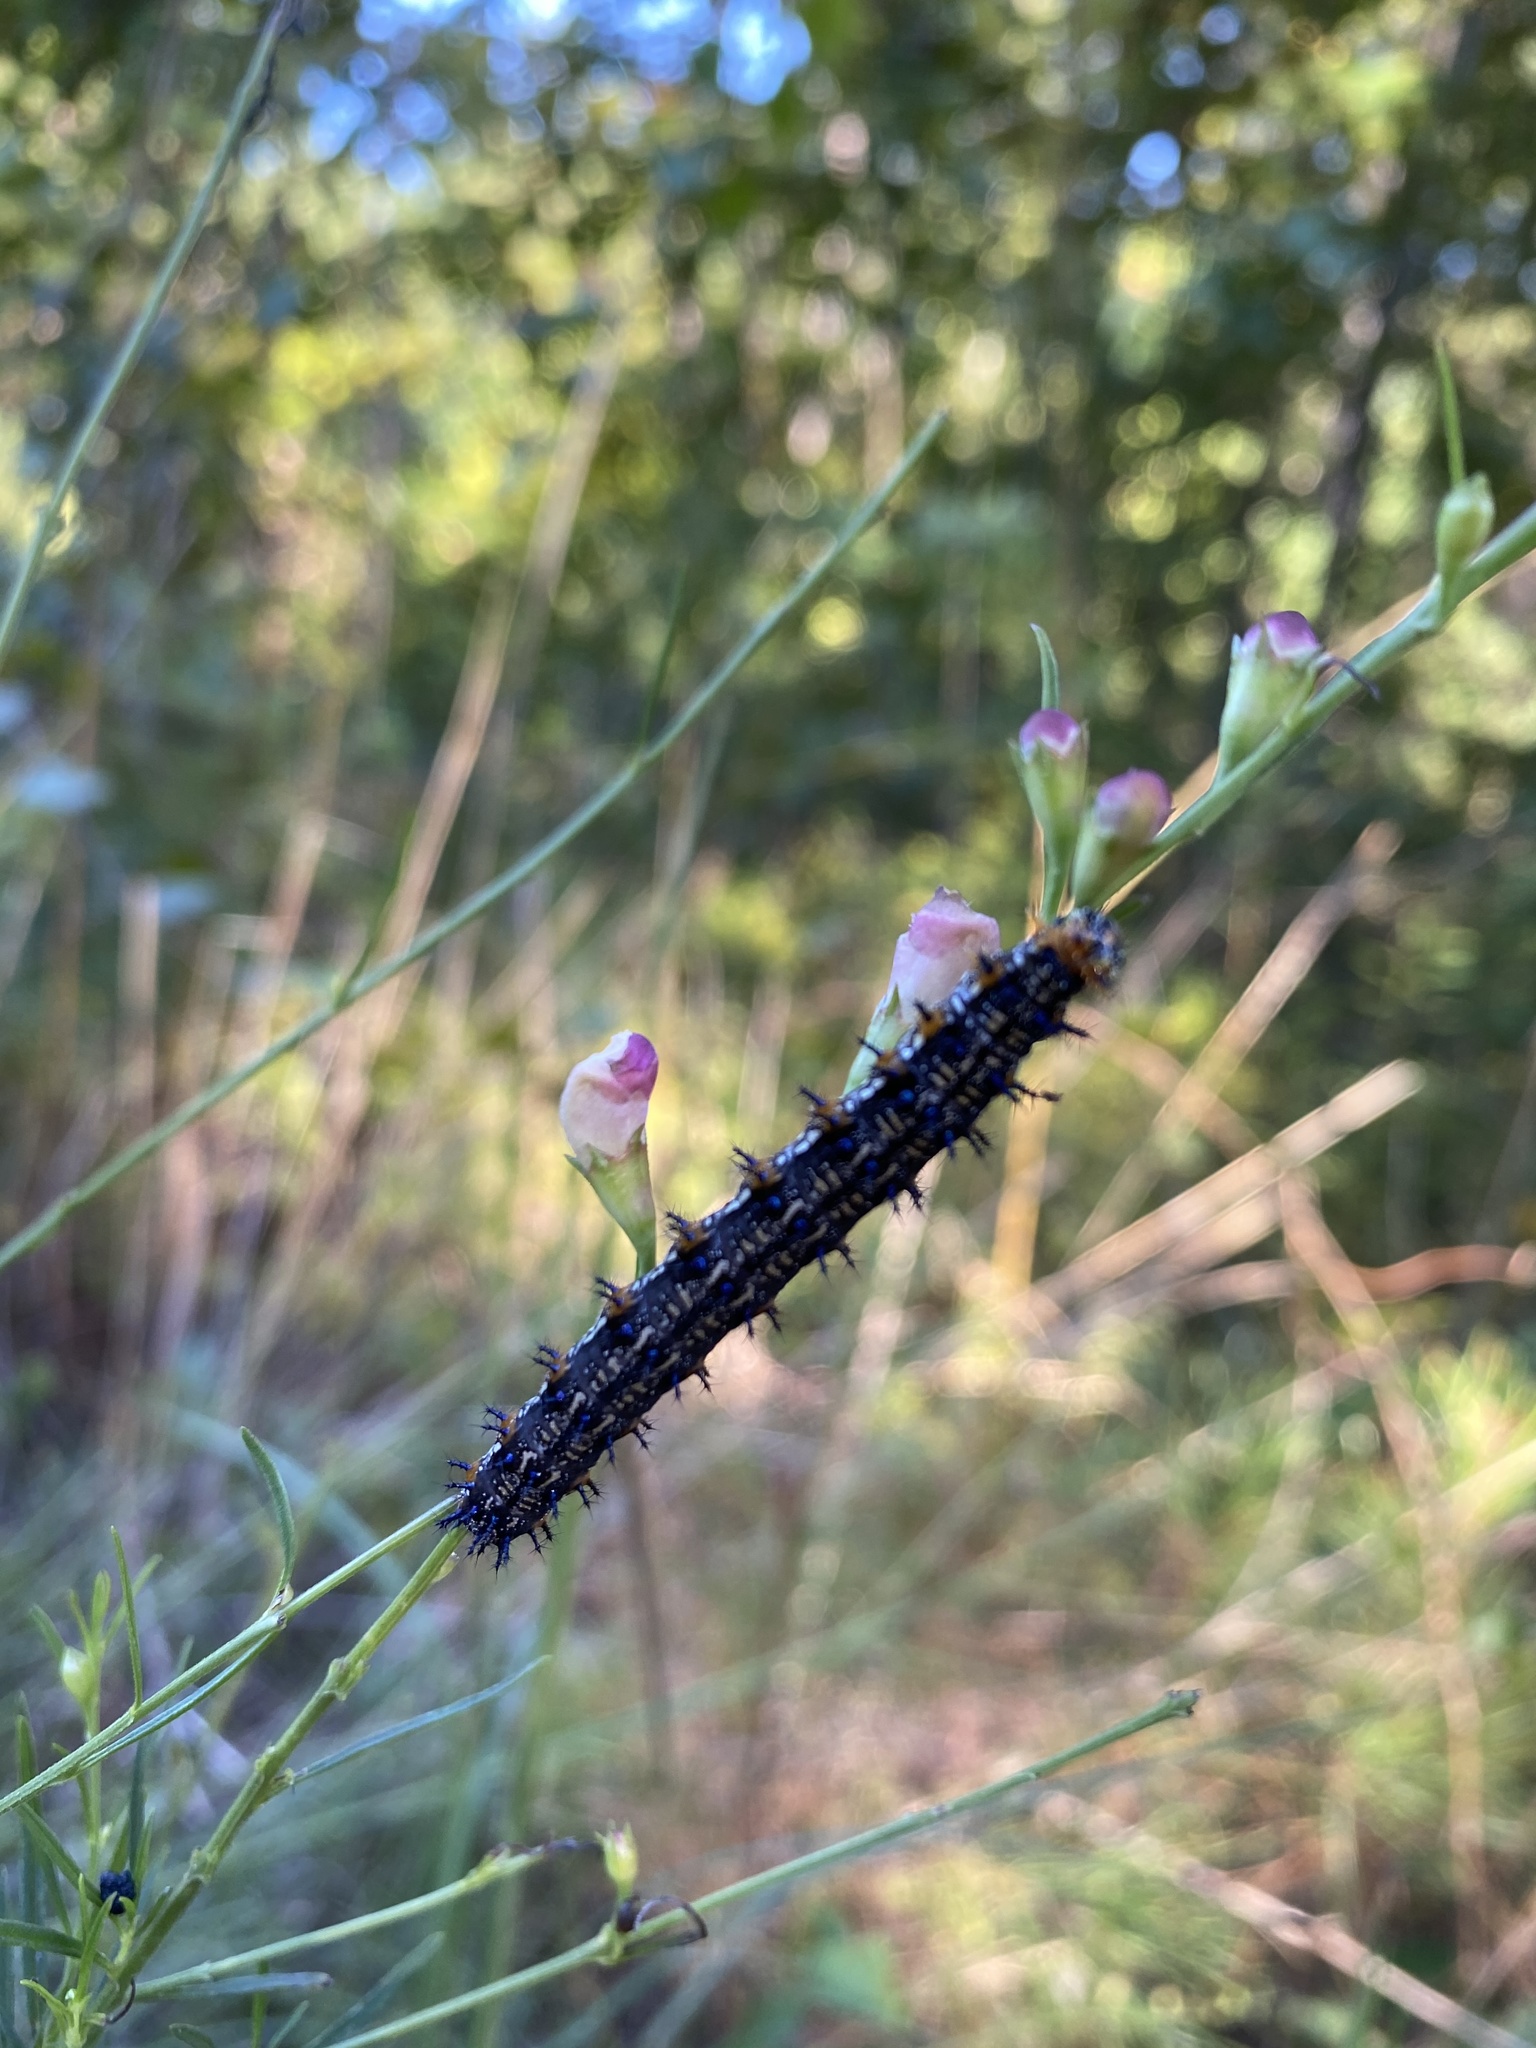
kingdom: Animalia
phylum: Arthropoda
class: Insecta
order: Lepidoptera
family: Nymphalidae
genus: Junonia
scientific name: Junonia coenia
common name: Common buckeye
